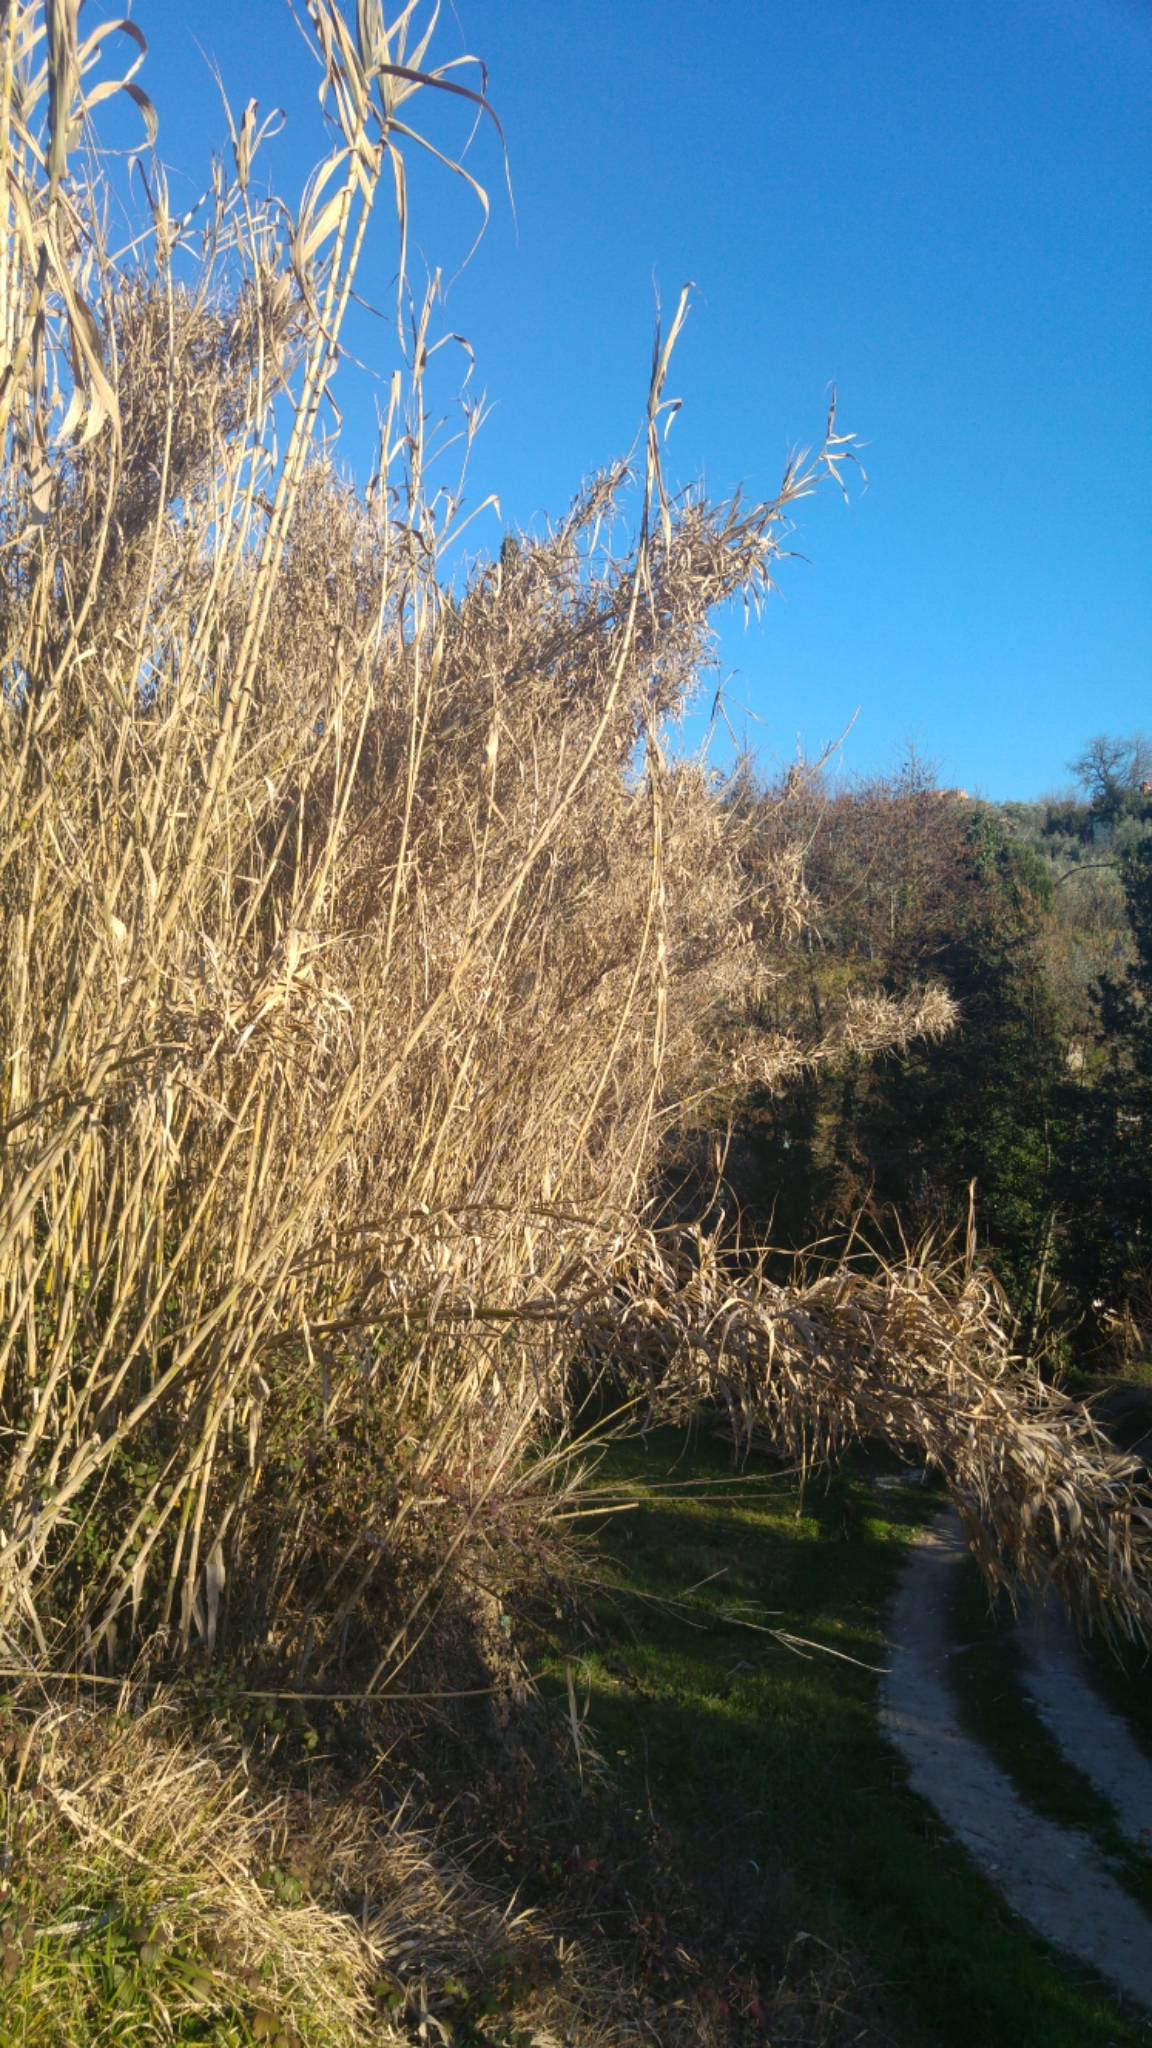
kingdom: Plantae
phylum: Tracheophyta
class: Liliopsida
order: Poales
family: Poaceae
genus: Arundo
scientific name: Arundo donax
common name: Giant reed
